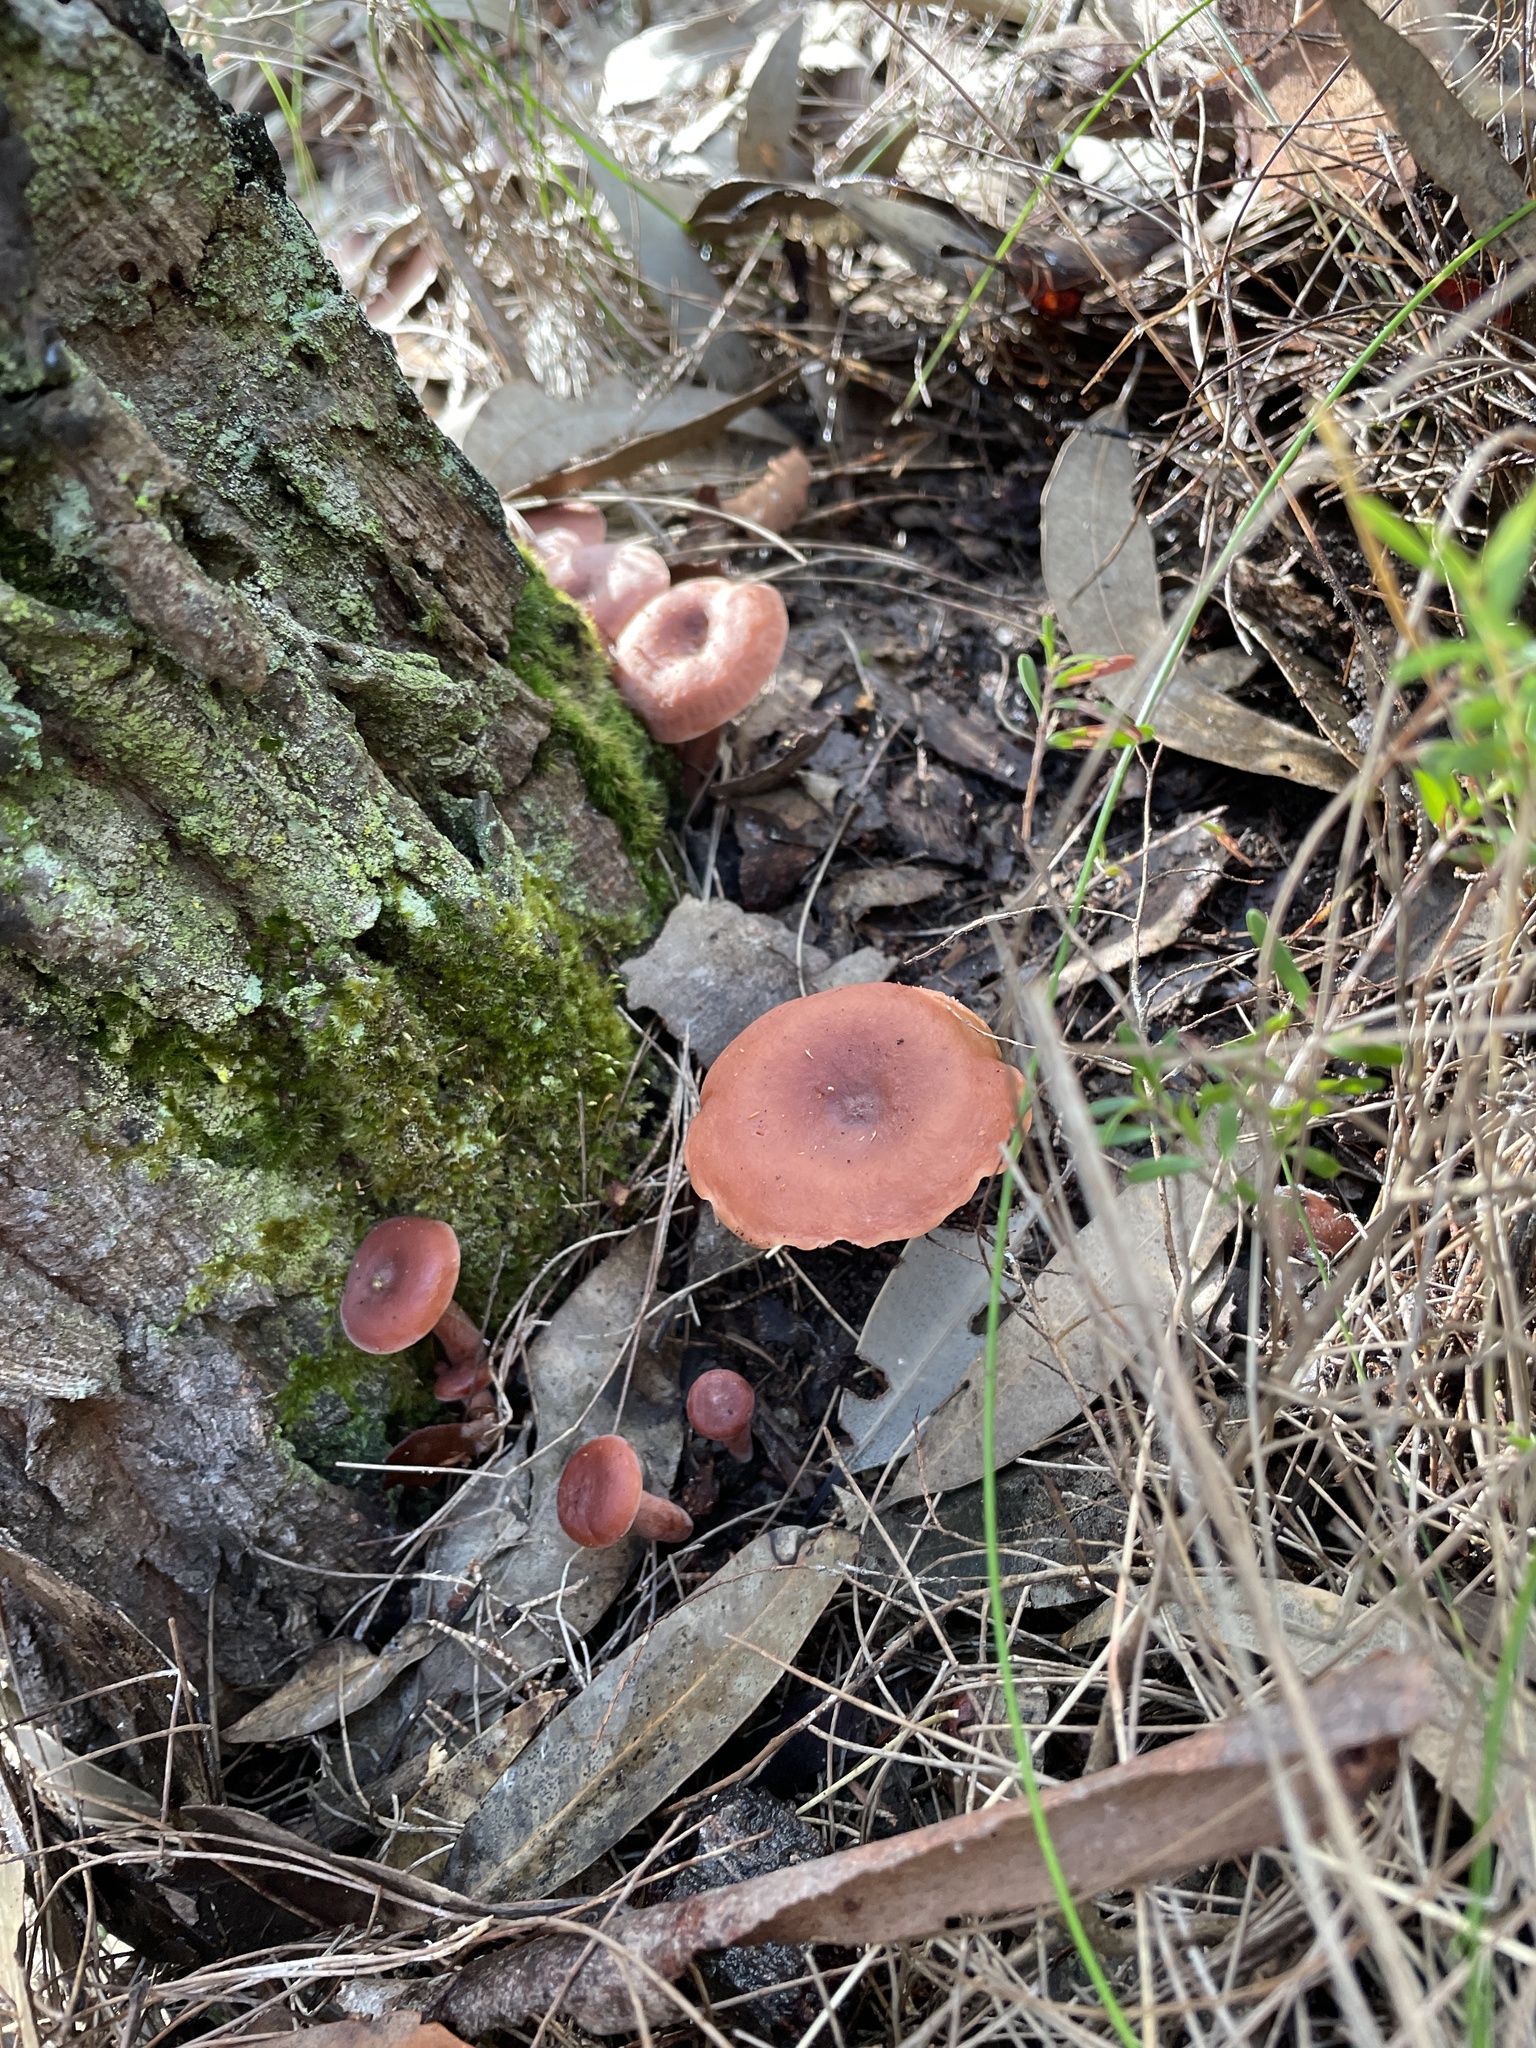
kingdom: Fungi
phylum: Basidiomycota
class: Agaricomycetes
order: Russulales
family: Russulaceae
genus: Lactarius
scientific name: Lactarius eucalypti
